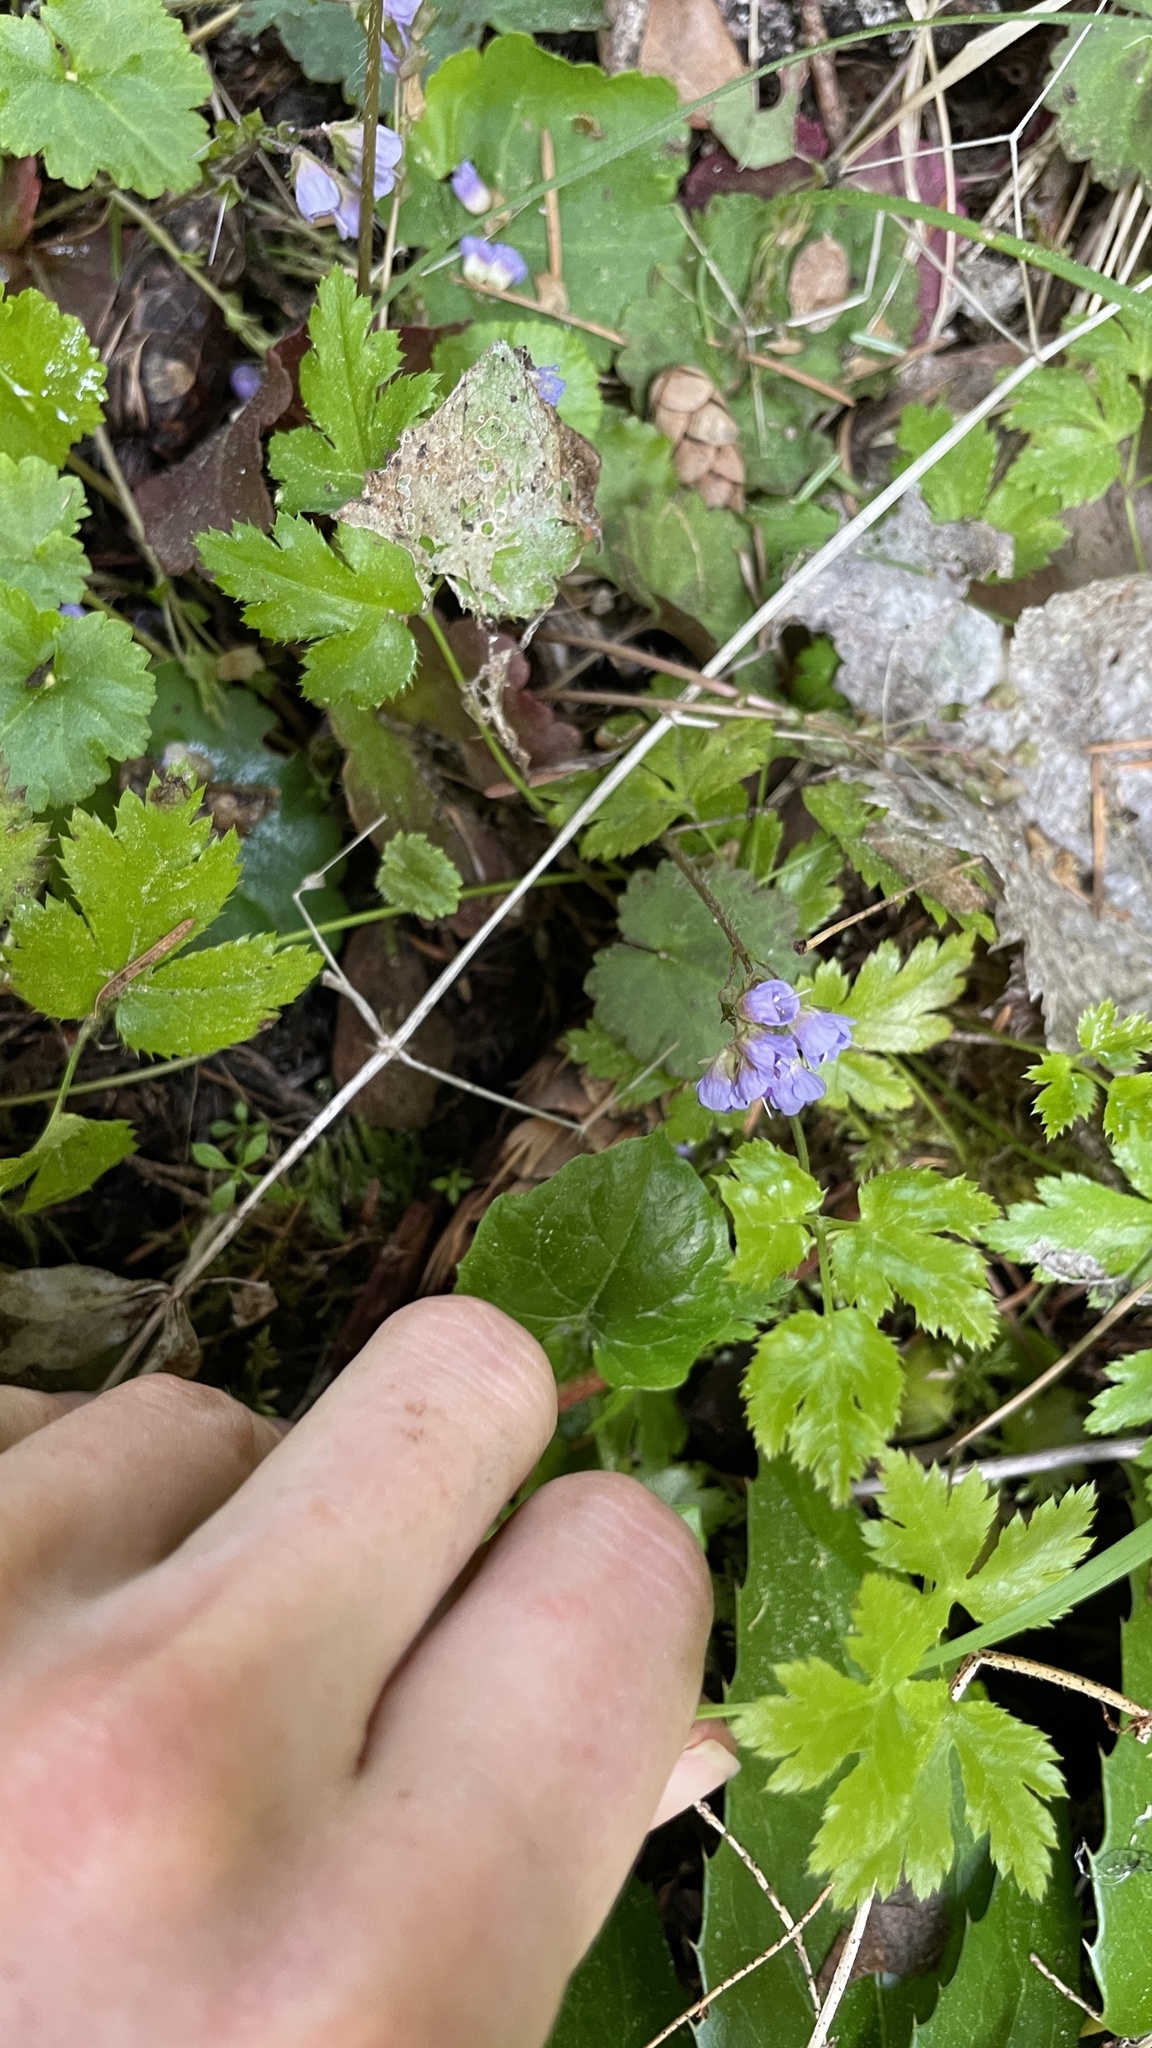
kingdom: Plantae
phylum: Tracheophyta
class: Magnoliopsida
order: Lamiales
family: Plantaginaceae
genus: Synthyris
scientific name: Synthyris reniformis
